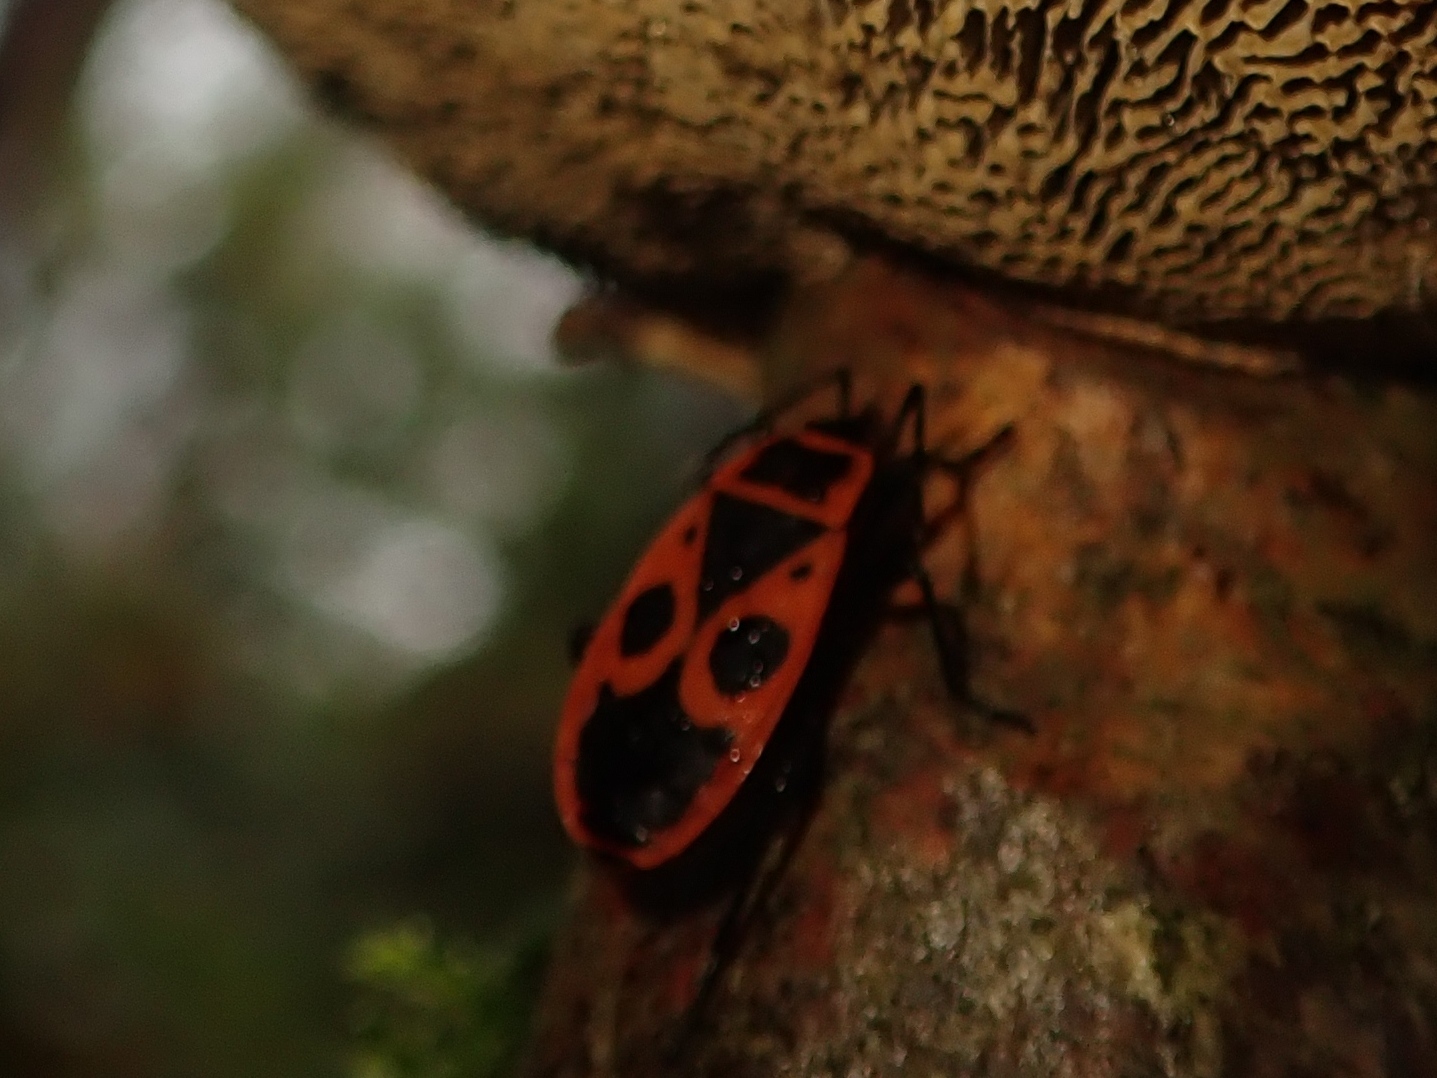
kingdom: Animalia
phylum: Arthropoda
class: Insecta
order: Hemiptera
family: Pyrrhocoridae
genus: Pyrrhocoris
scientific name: Pyrrhocoris apterus
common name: Firebug
